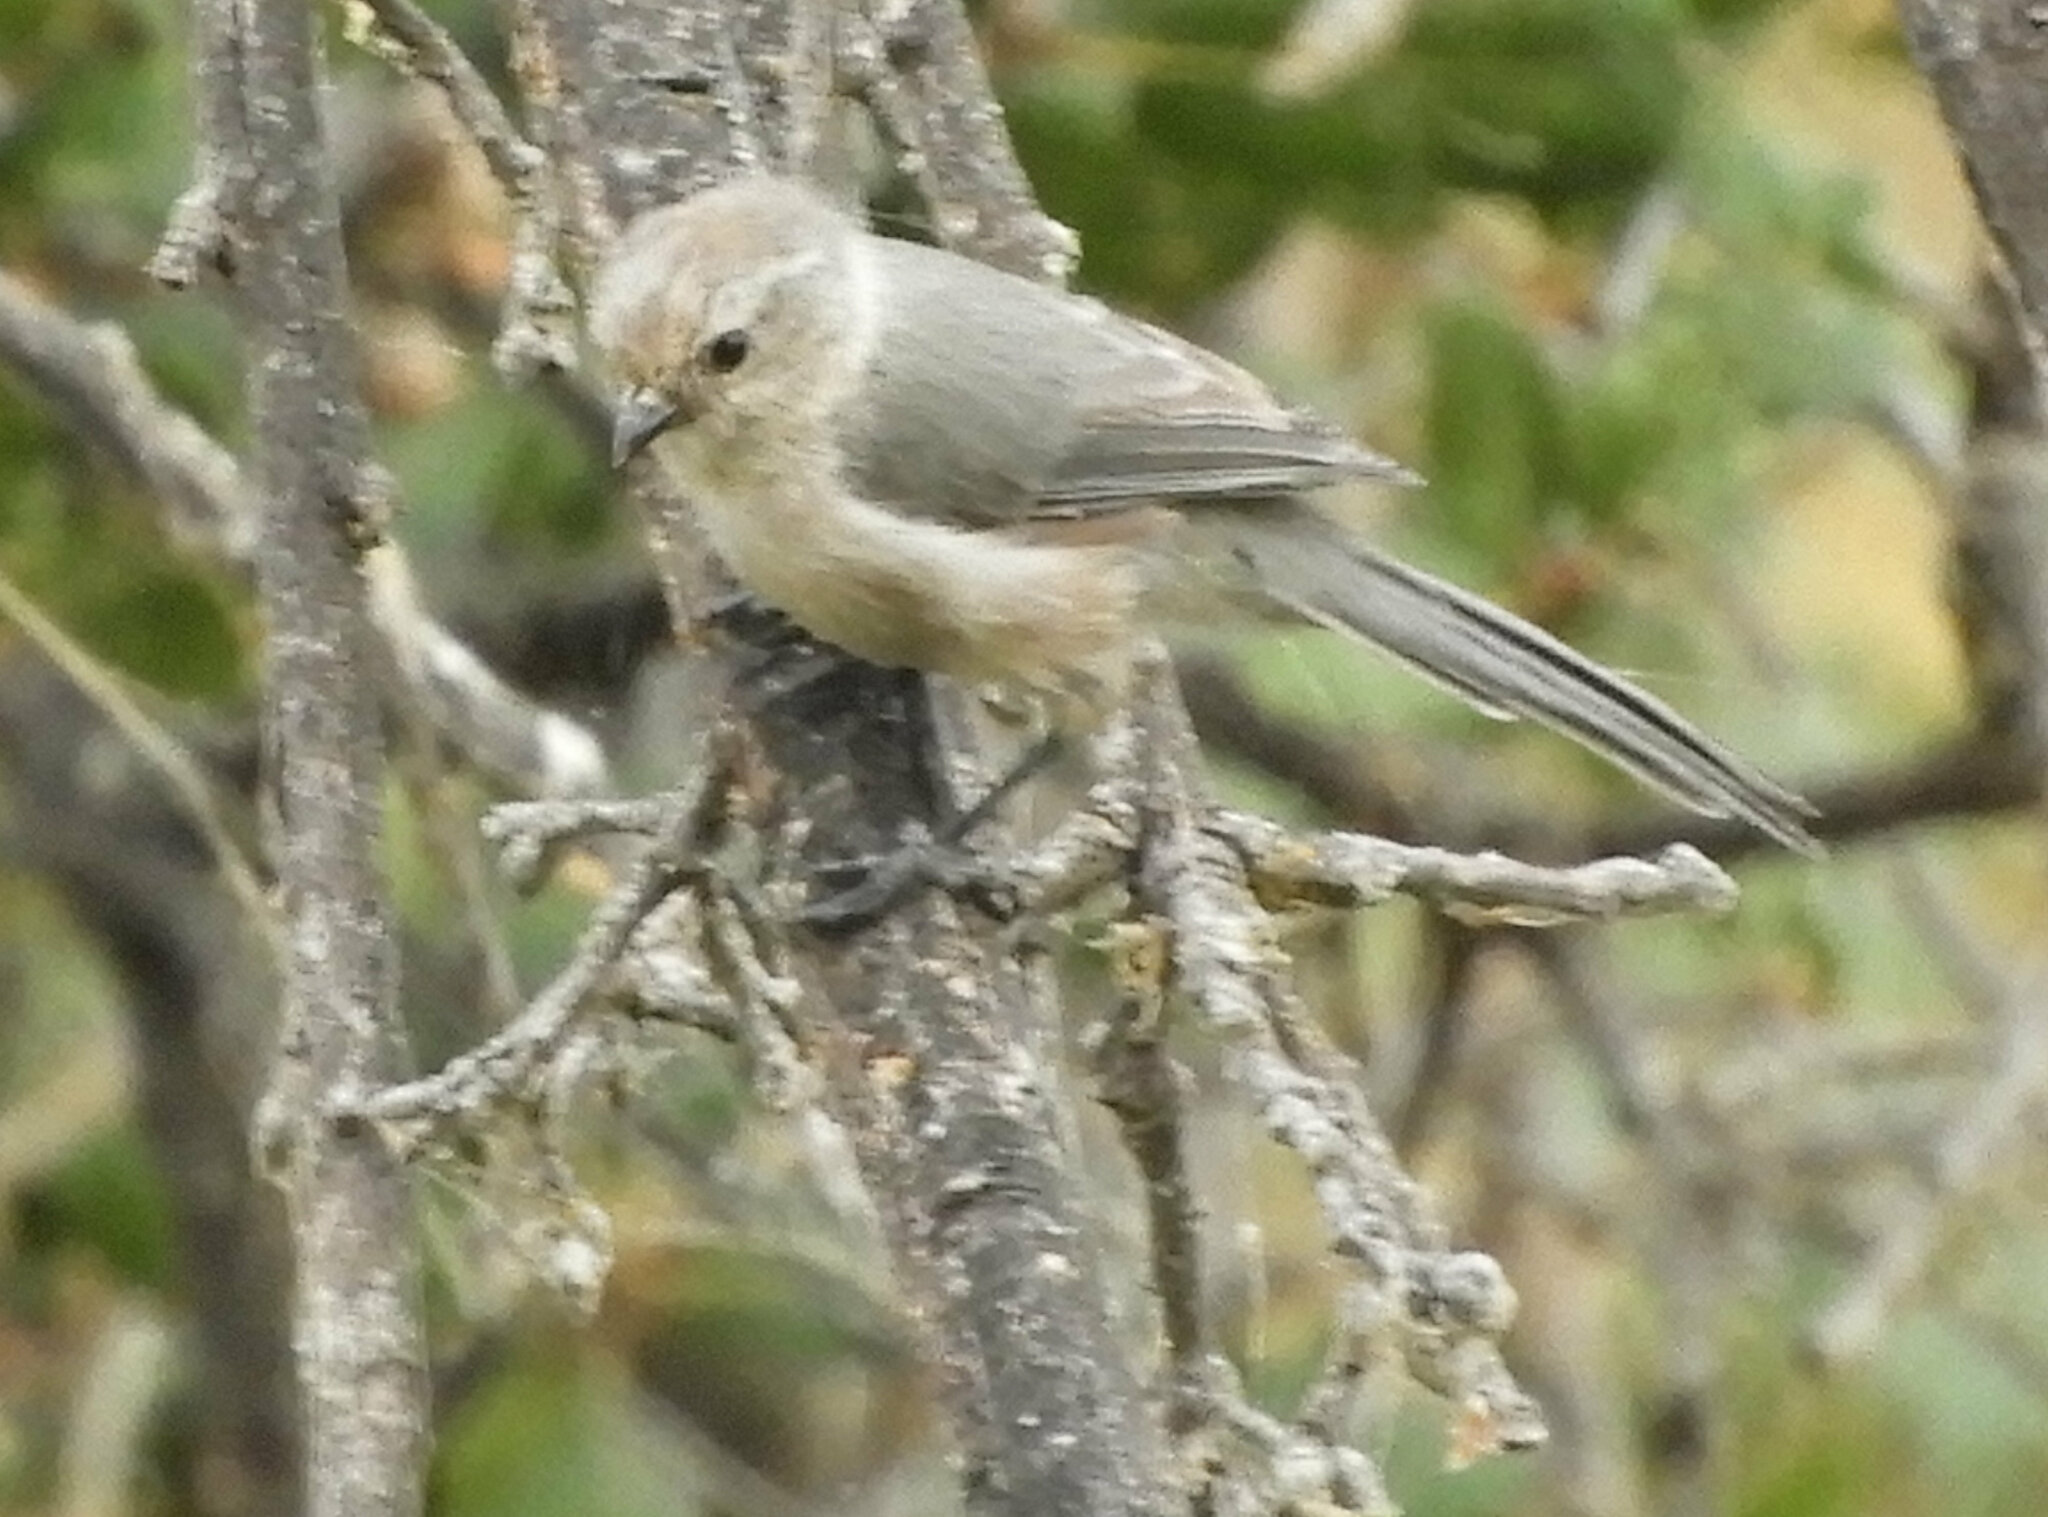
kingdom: Animalia
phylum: Chordata
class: Aves
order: Passeriformes
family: Aegithalidae
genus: Psaltriparus
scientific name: Psaltriparus minimus
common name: American bushtit
